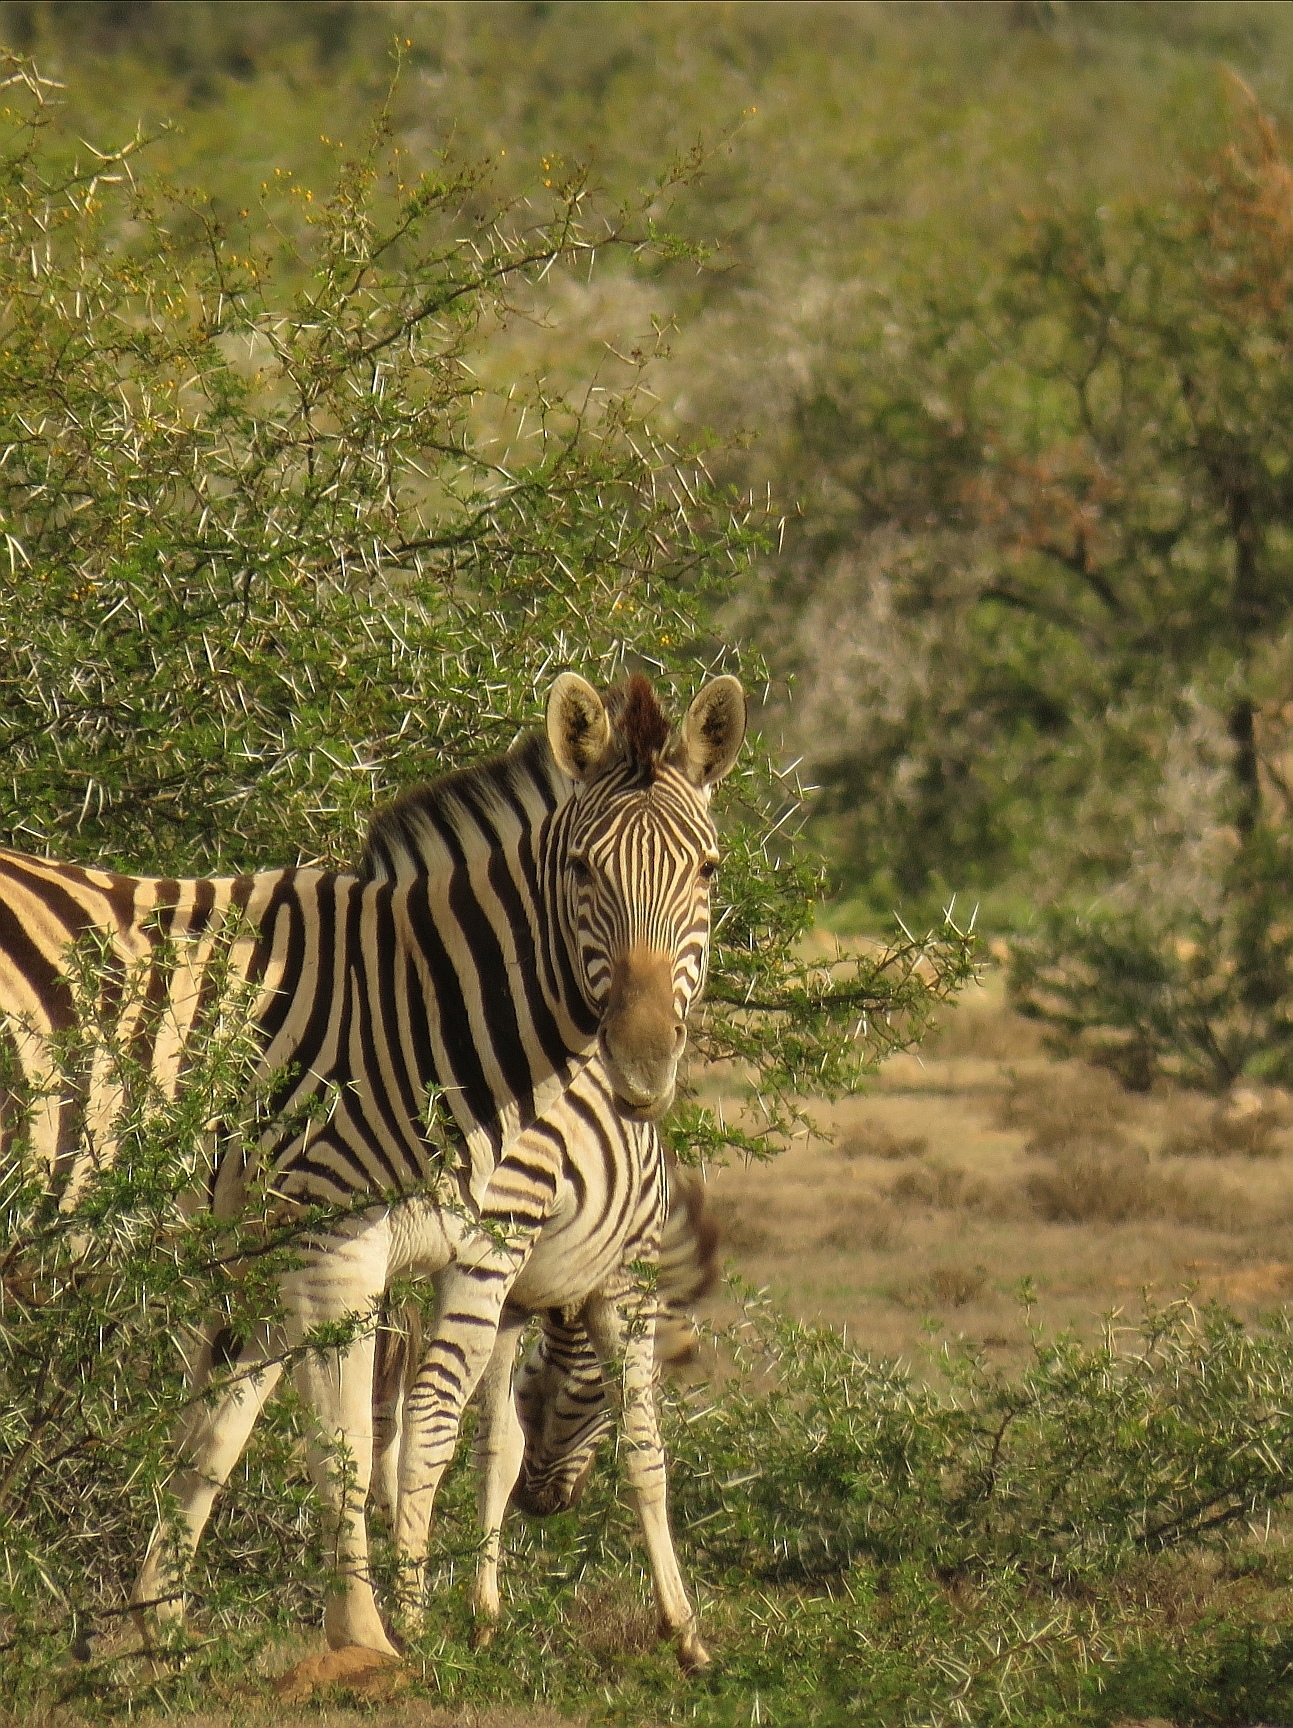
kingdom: Animalia
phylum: Chordata
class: Mammalia
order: Perissodactyla
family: Equidae
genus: Equus
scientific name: Equus quagga
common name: Plains zebra
